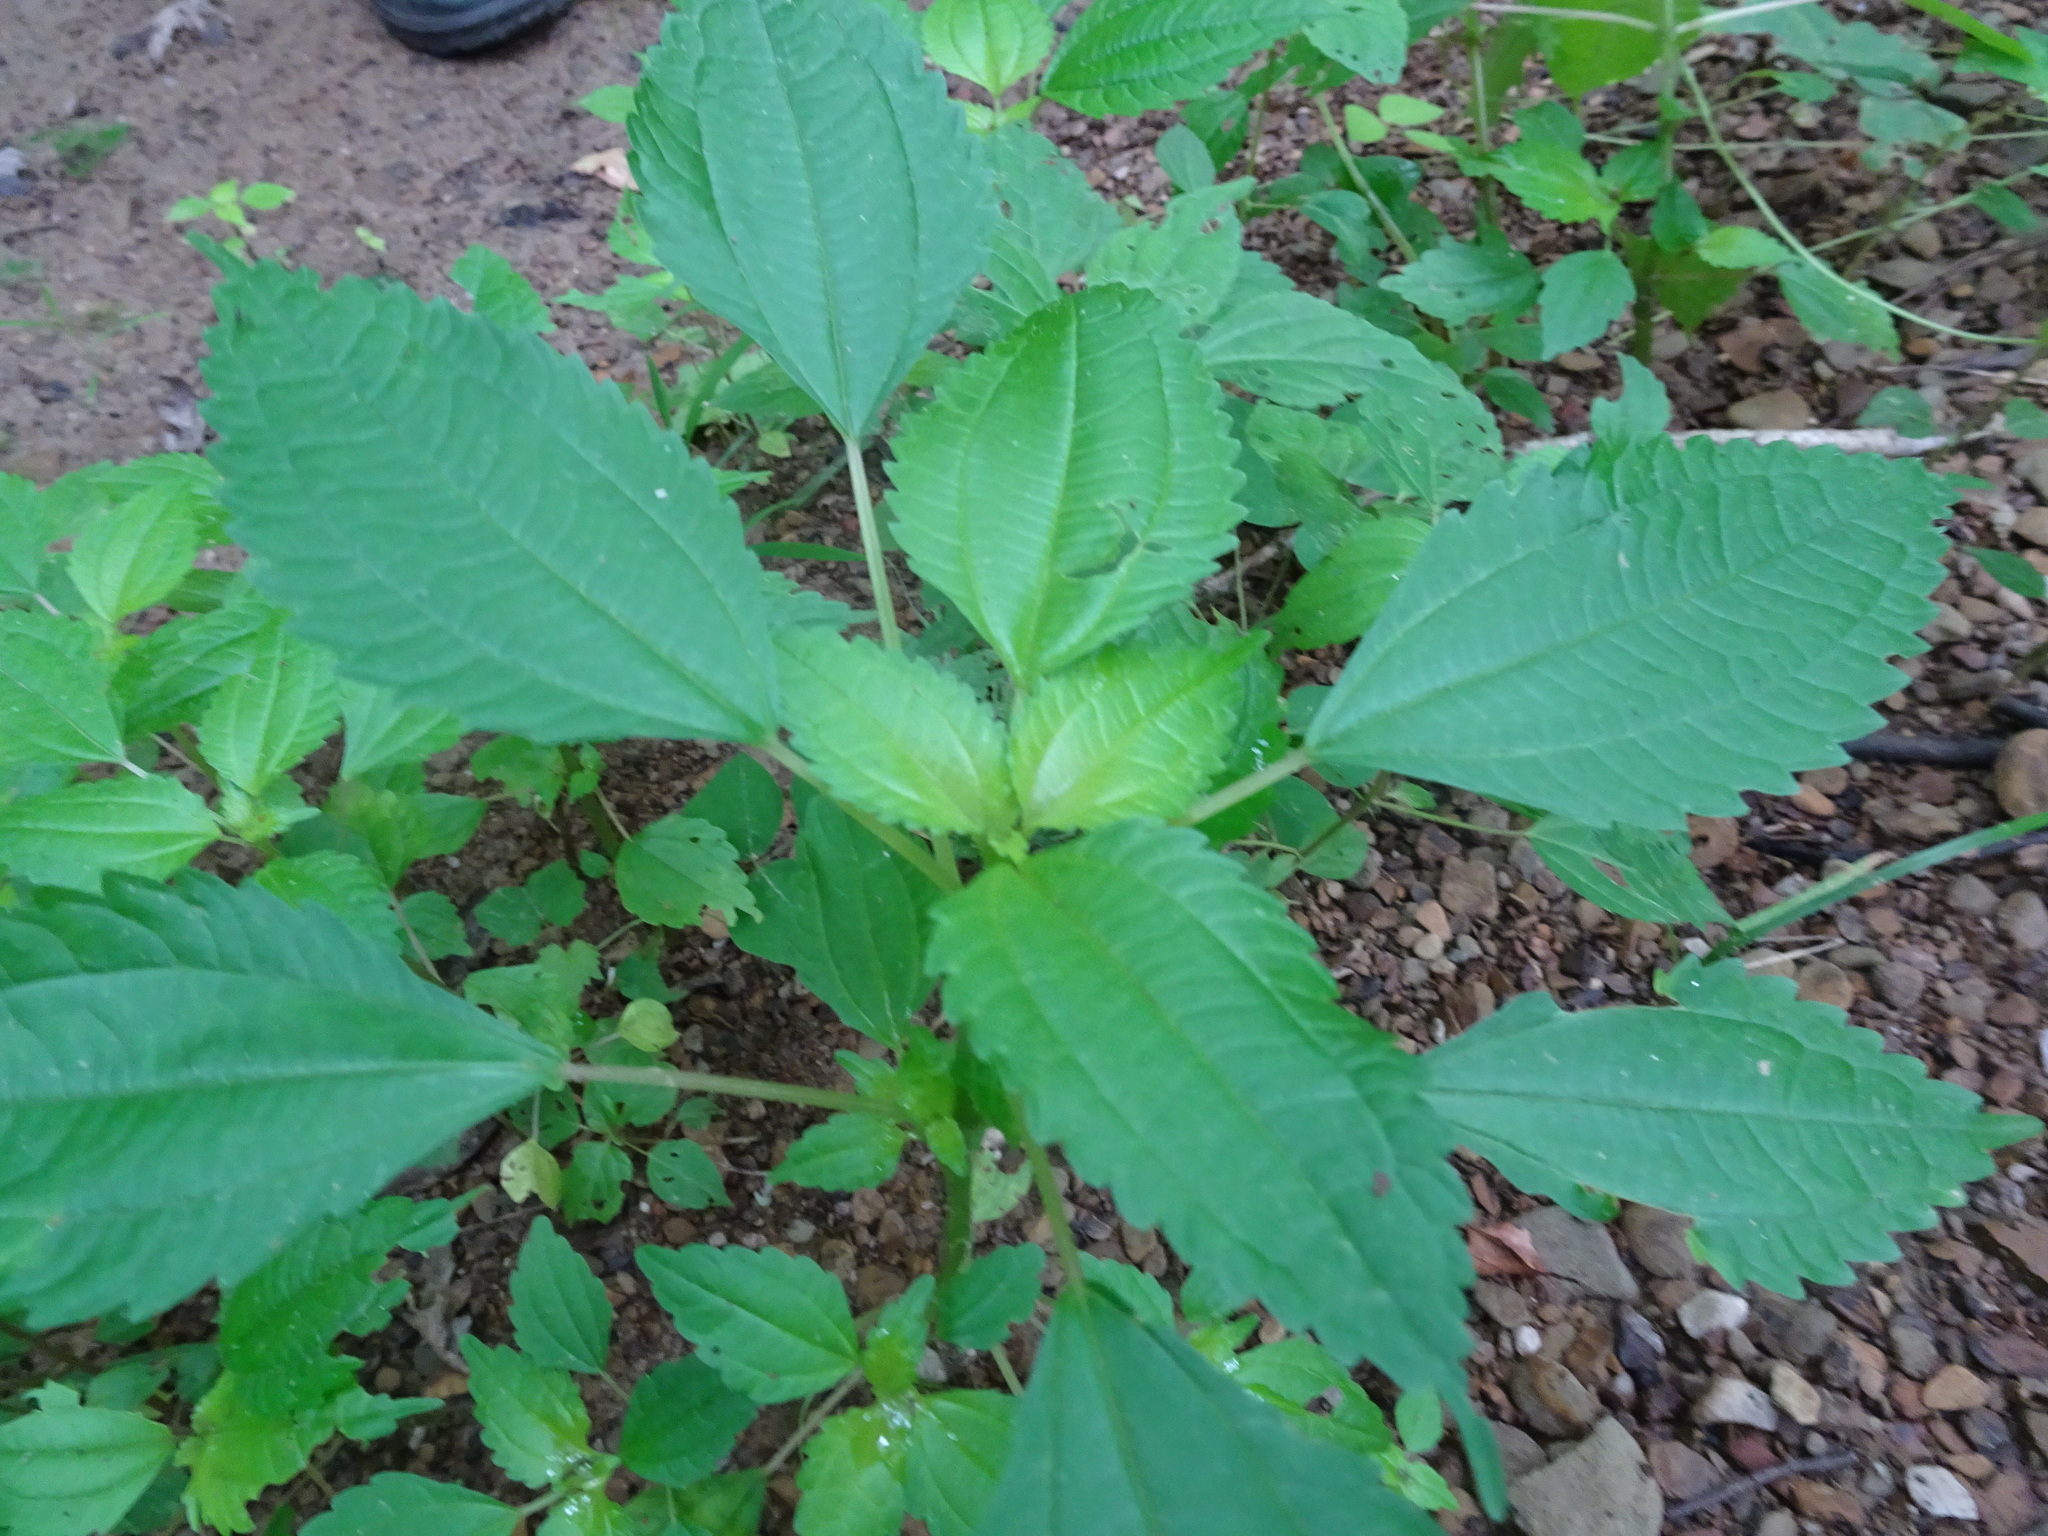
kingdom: Plantae
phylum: Tracheophyta
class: Magnoliopsida
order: Rosales
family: Urticaceae
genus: Pilea
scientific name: Pilea pumila
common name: Clearweed
